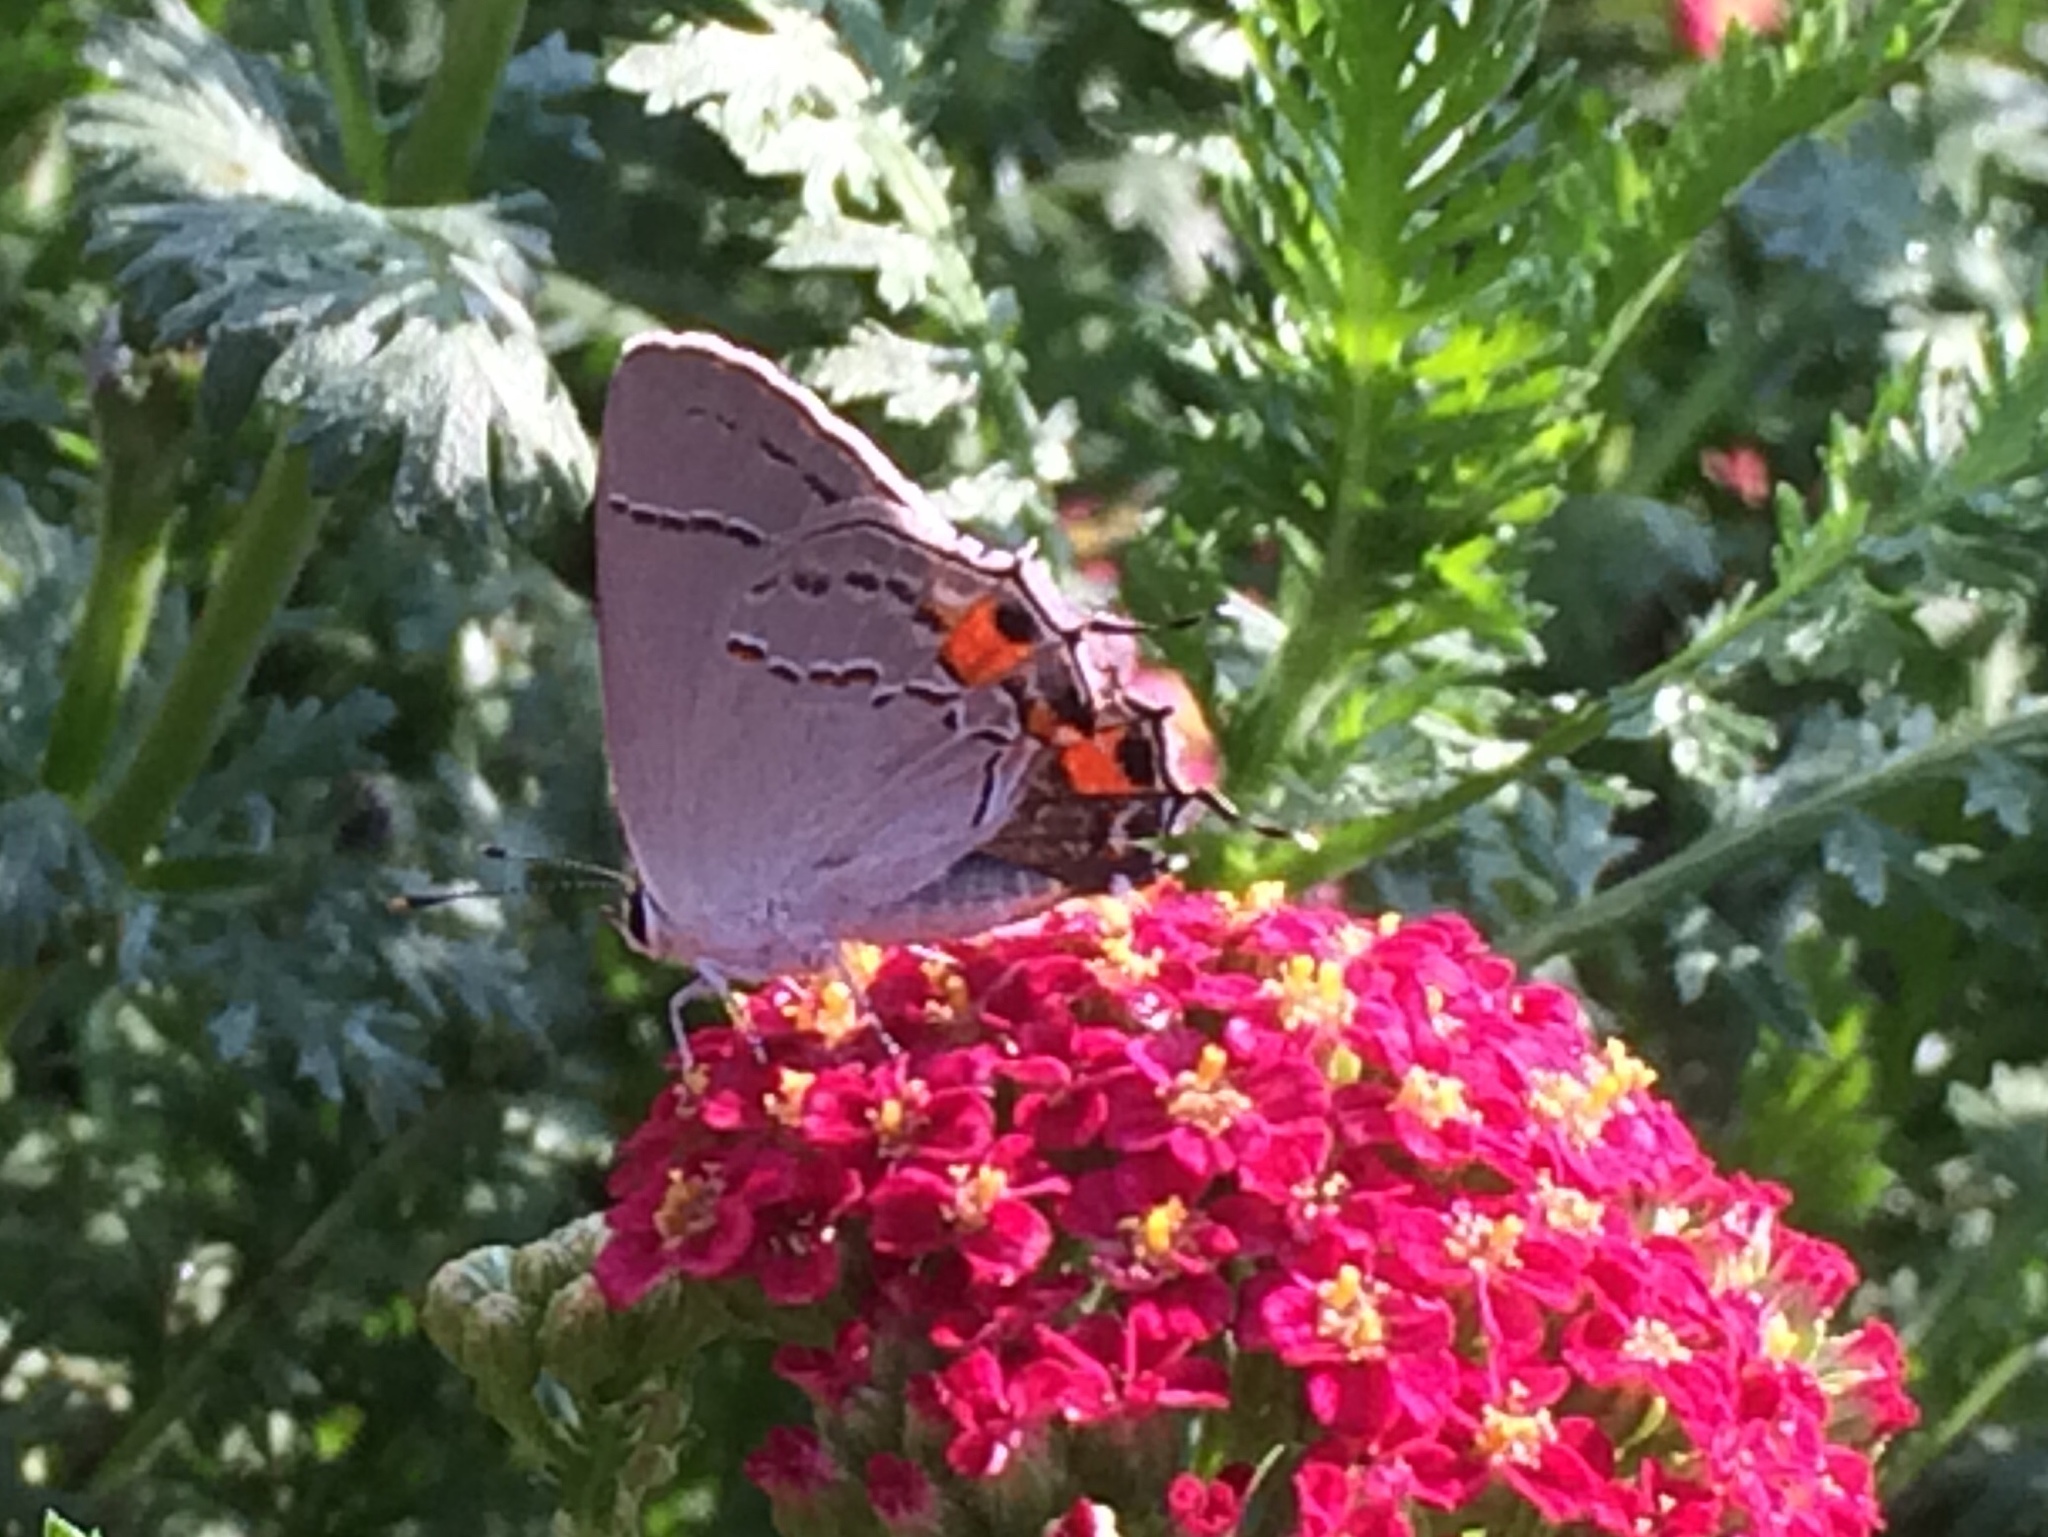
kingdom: Animalia
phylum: Arthropoda
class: Insecta
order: Lepidoptera
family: Lycaenidae
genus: Strymon
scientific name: Strymon melinus
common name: Gray hairstreak
